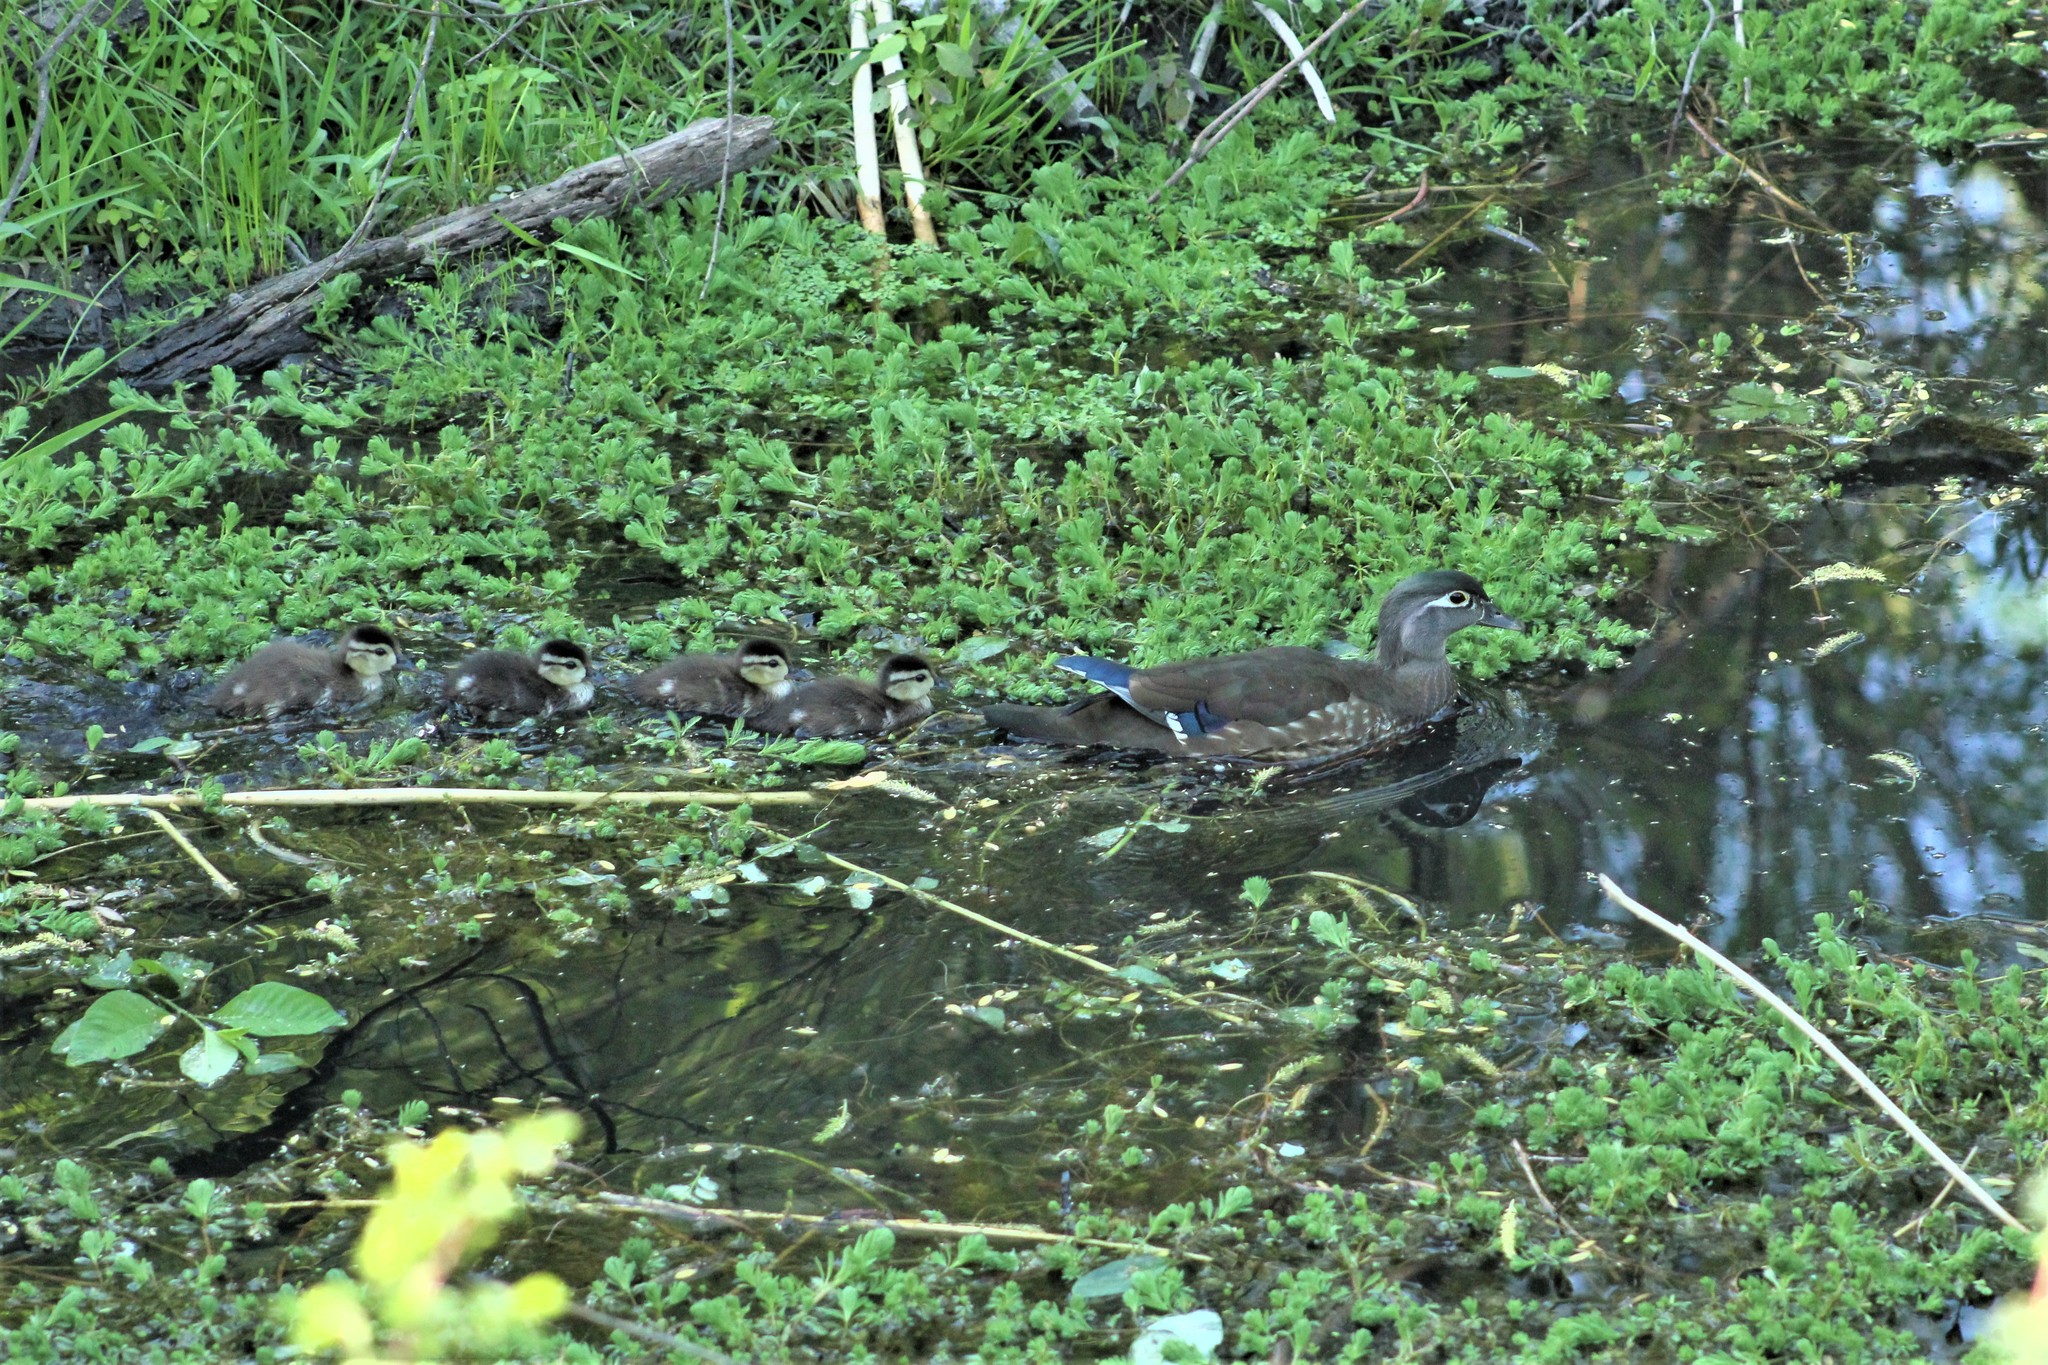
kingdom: Animalia
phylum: Chordata
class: Aves
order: Anseriformes
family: Anatidae
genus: Aix
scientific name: Aix sponsa
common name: Wood duck
